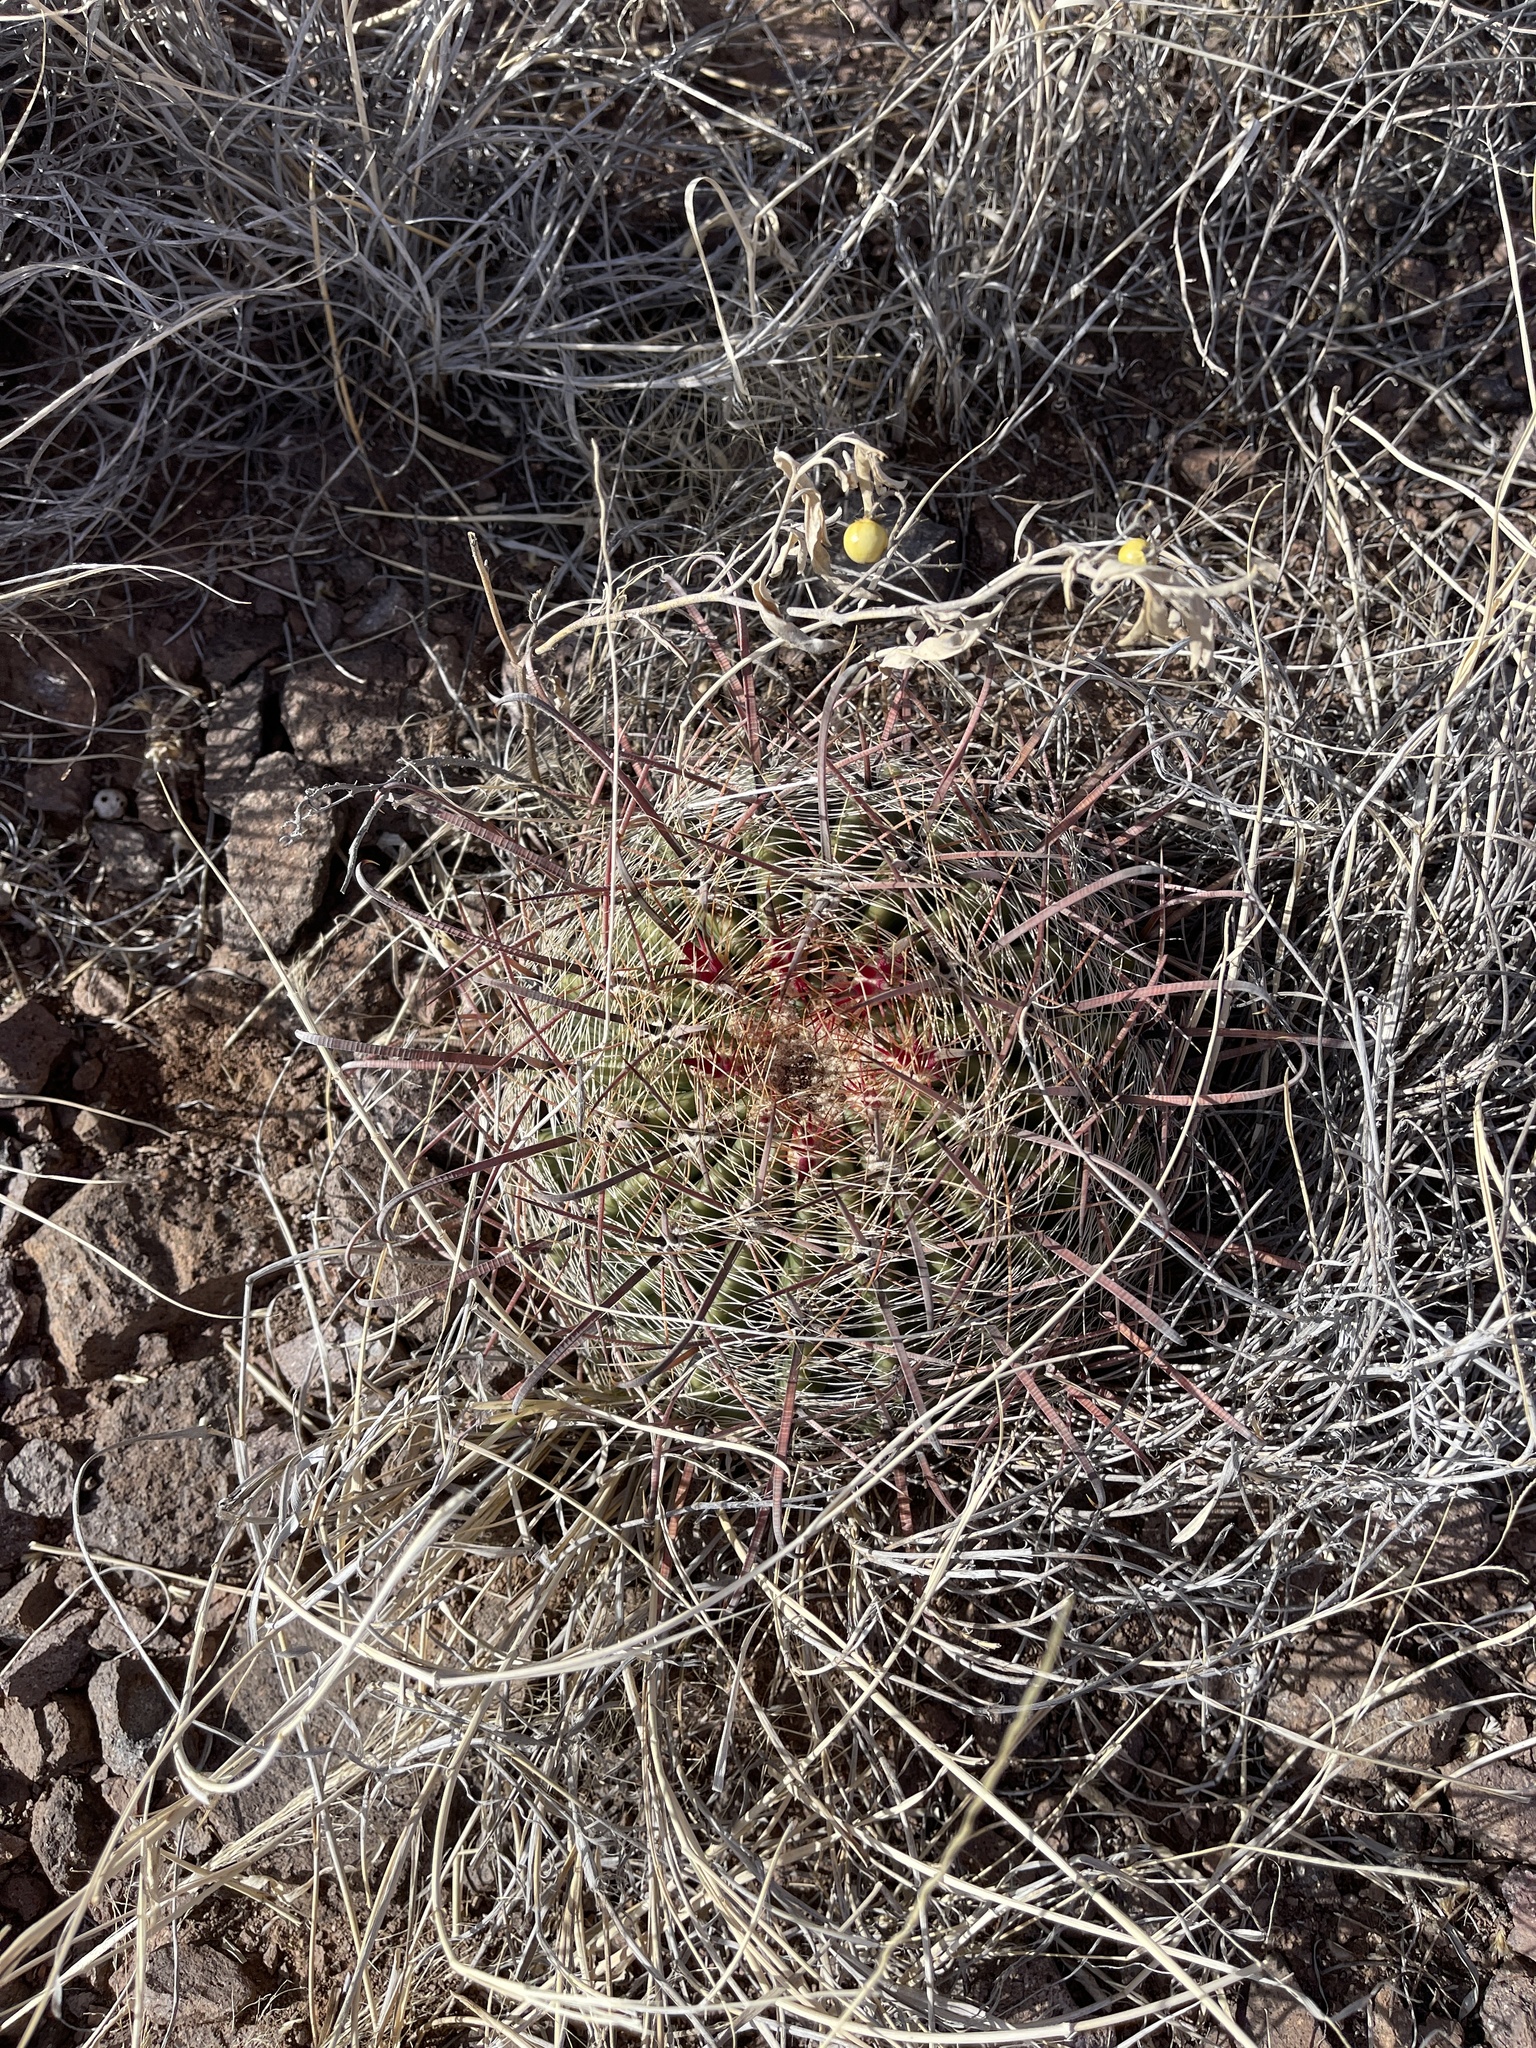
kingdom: Plantae
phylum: Tracheophyta
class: Magnoliopsida
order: Caryophyllales
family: Cactaceae
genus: Ferocactus
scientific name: Ferocactus wislizeni
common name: Candy barrel cactus
